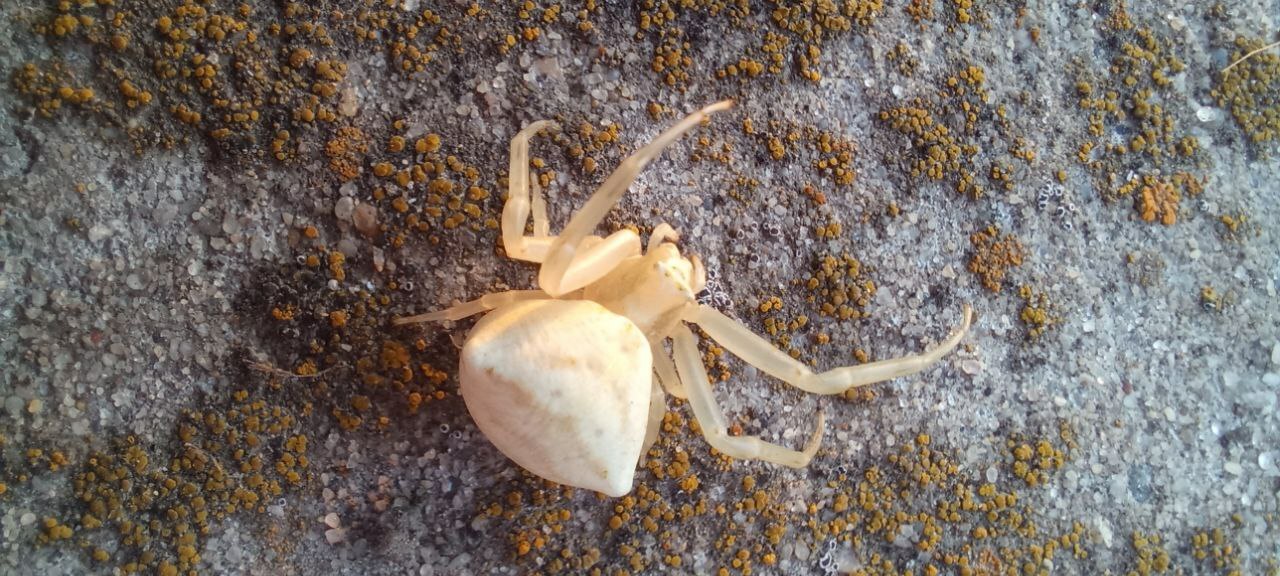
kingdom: Animalia
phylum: Arthropoda
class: Arachnida
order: Araneae
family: Thomisidae
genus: Thomisus
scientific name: Thomisus onustus
